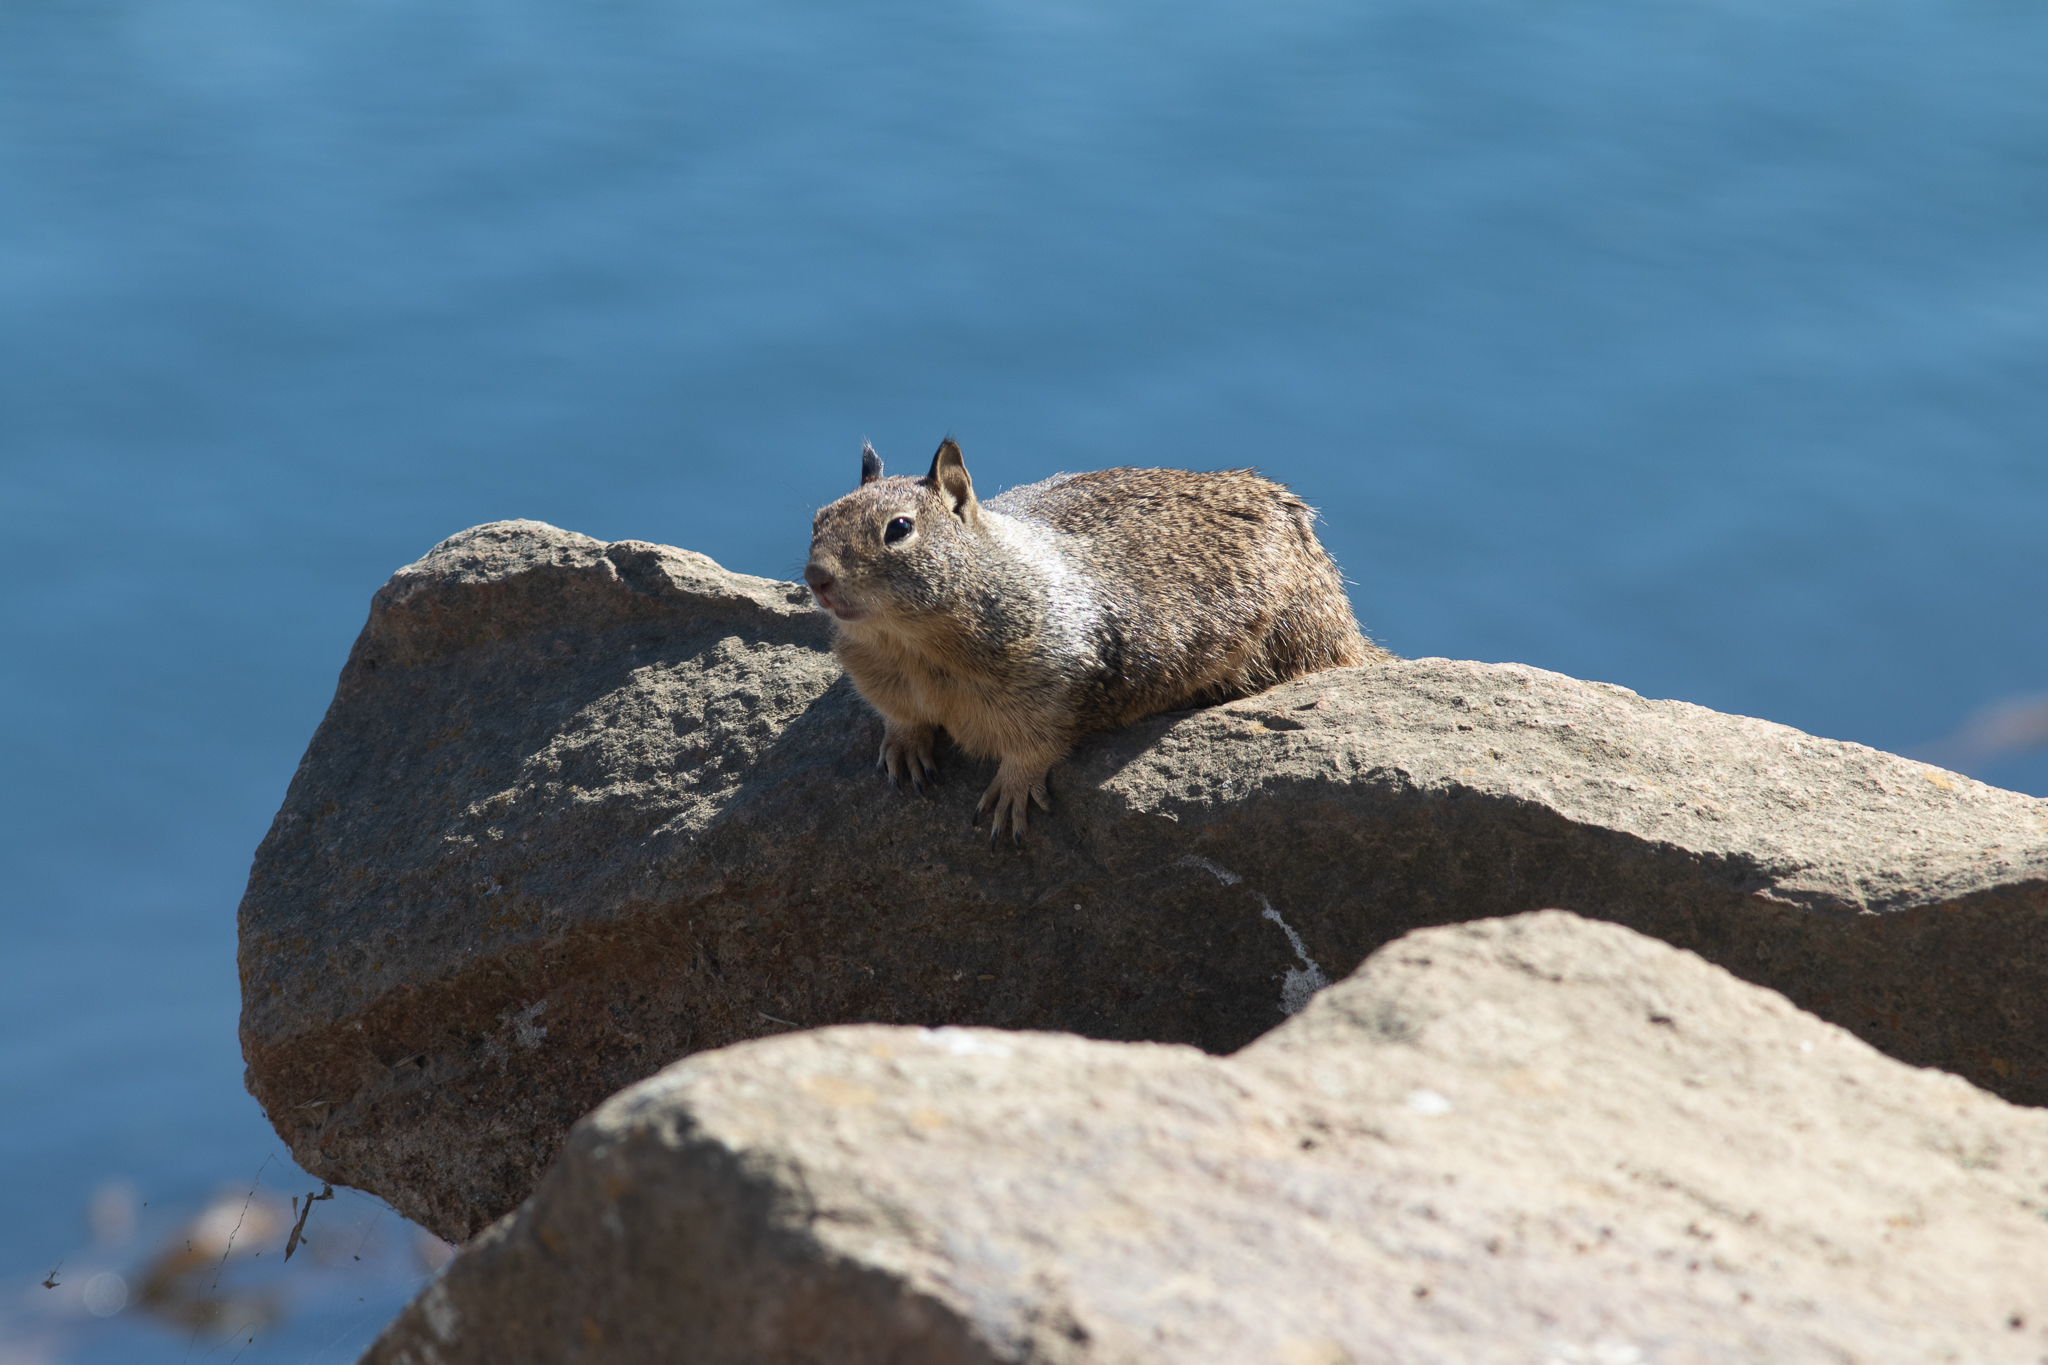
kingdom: Animalia
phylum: Chordata
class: Mammalia
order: Rodentia
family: Sciuridae
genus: Otospermophilus
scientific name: Otospermophilus beecheyi
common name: California ground squirrel
